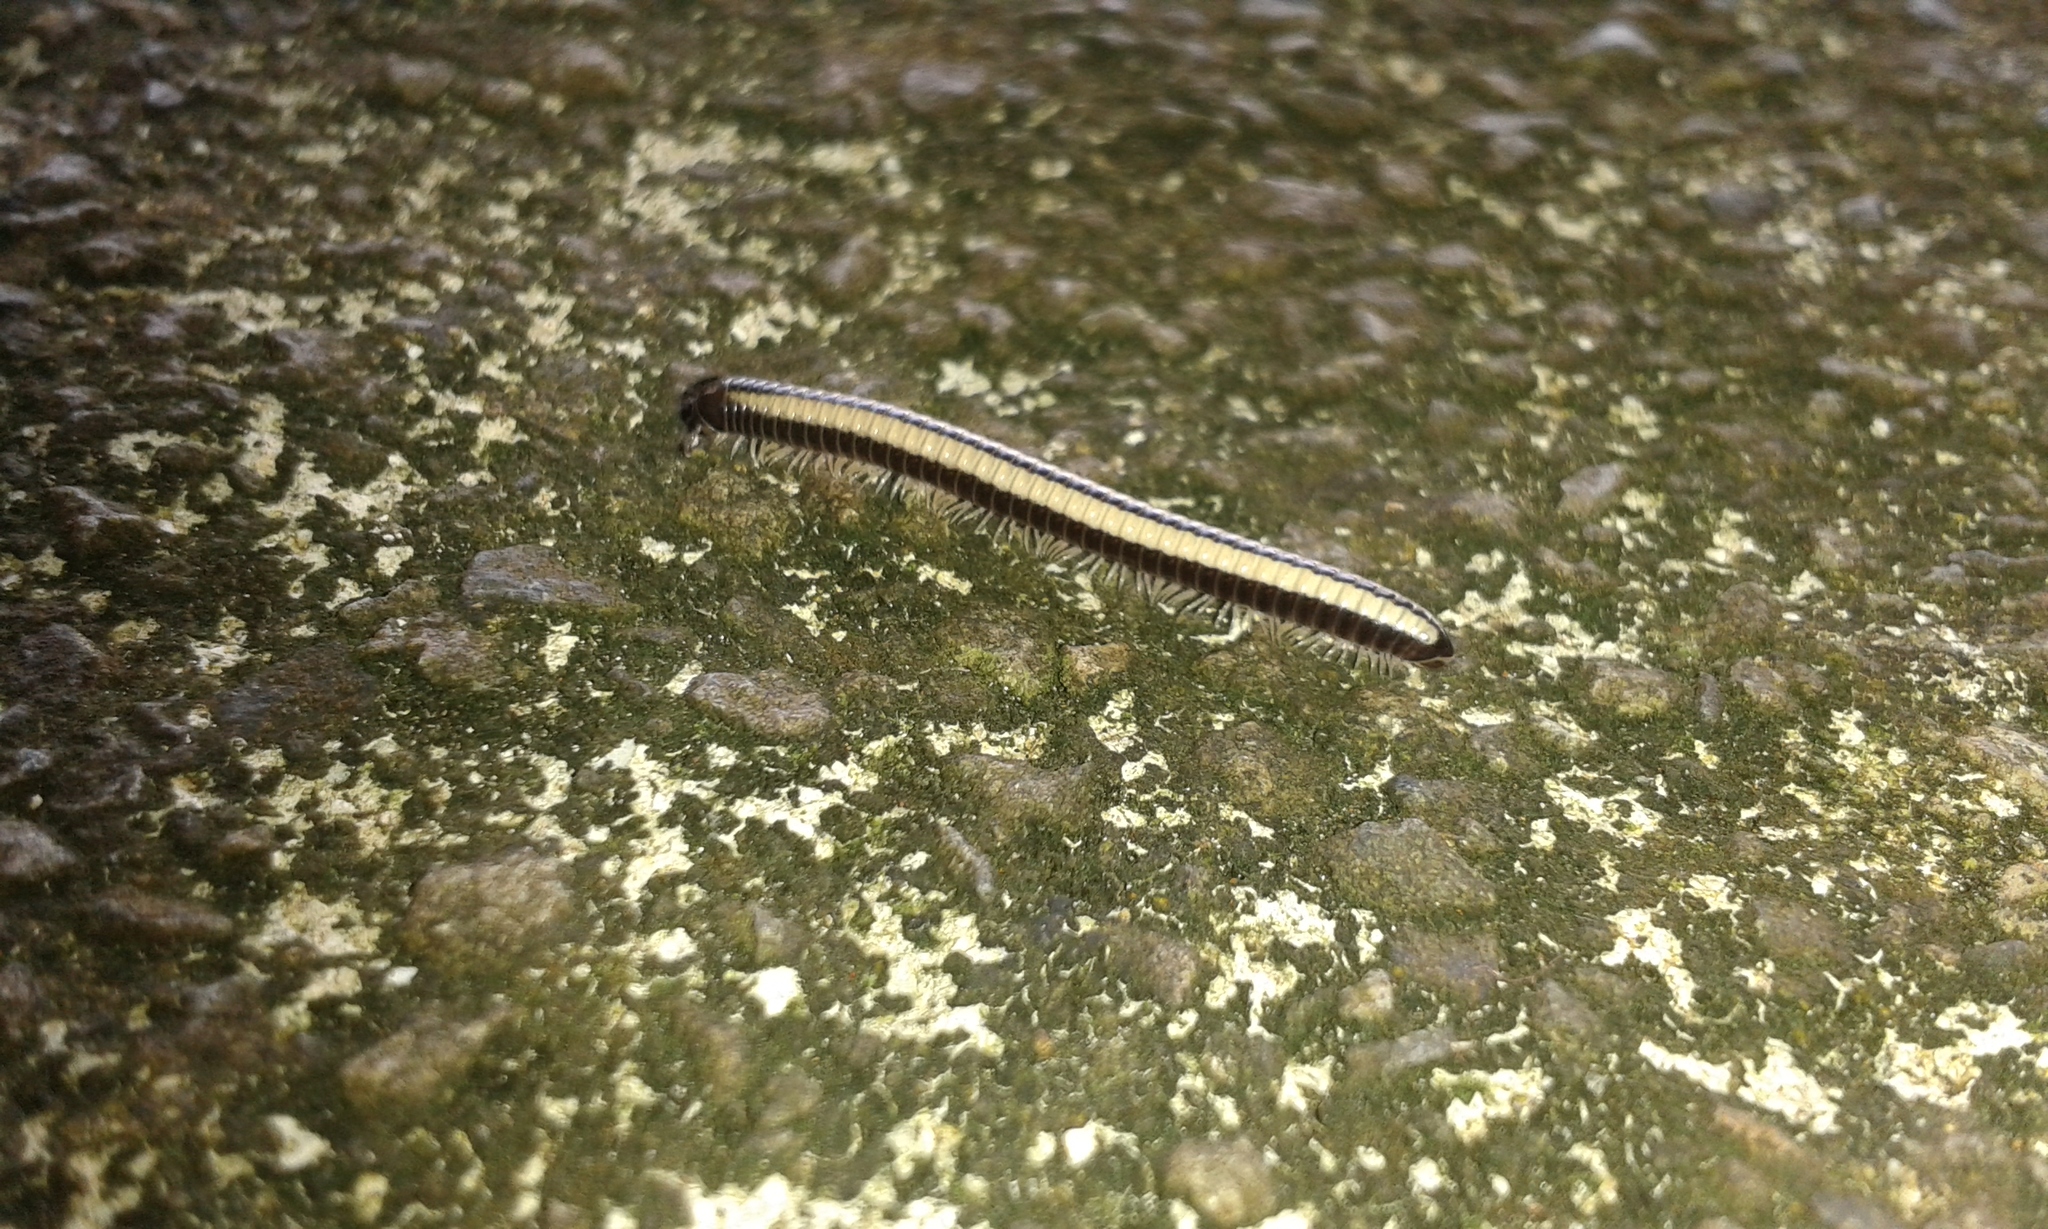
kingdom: Animalia
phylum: Arthropoda
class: Diplopoda
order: Spirobolida
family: Spirobolellidae
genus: Spirobolellus
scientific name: Spirobolellus immigrans
